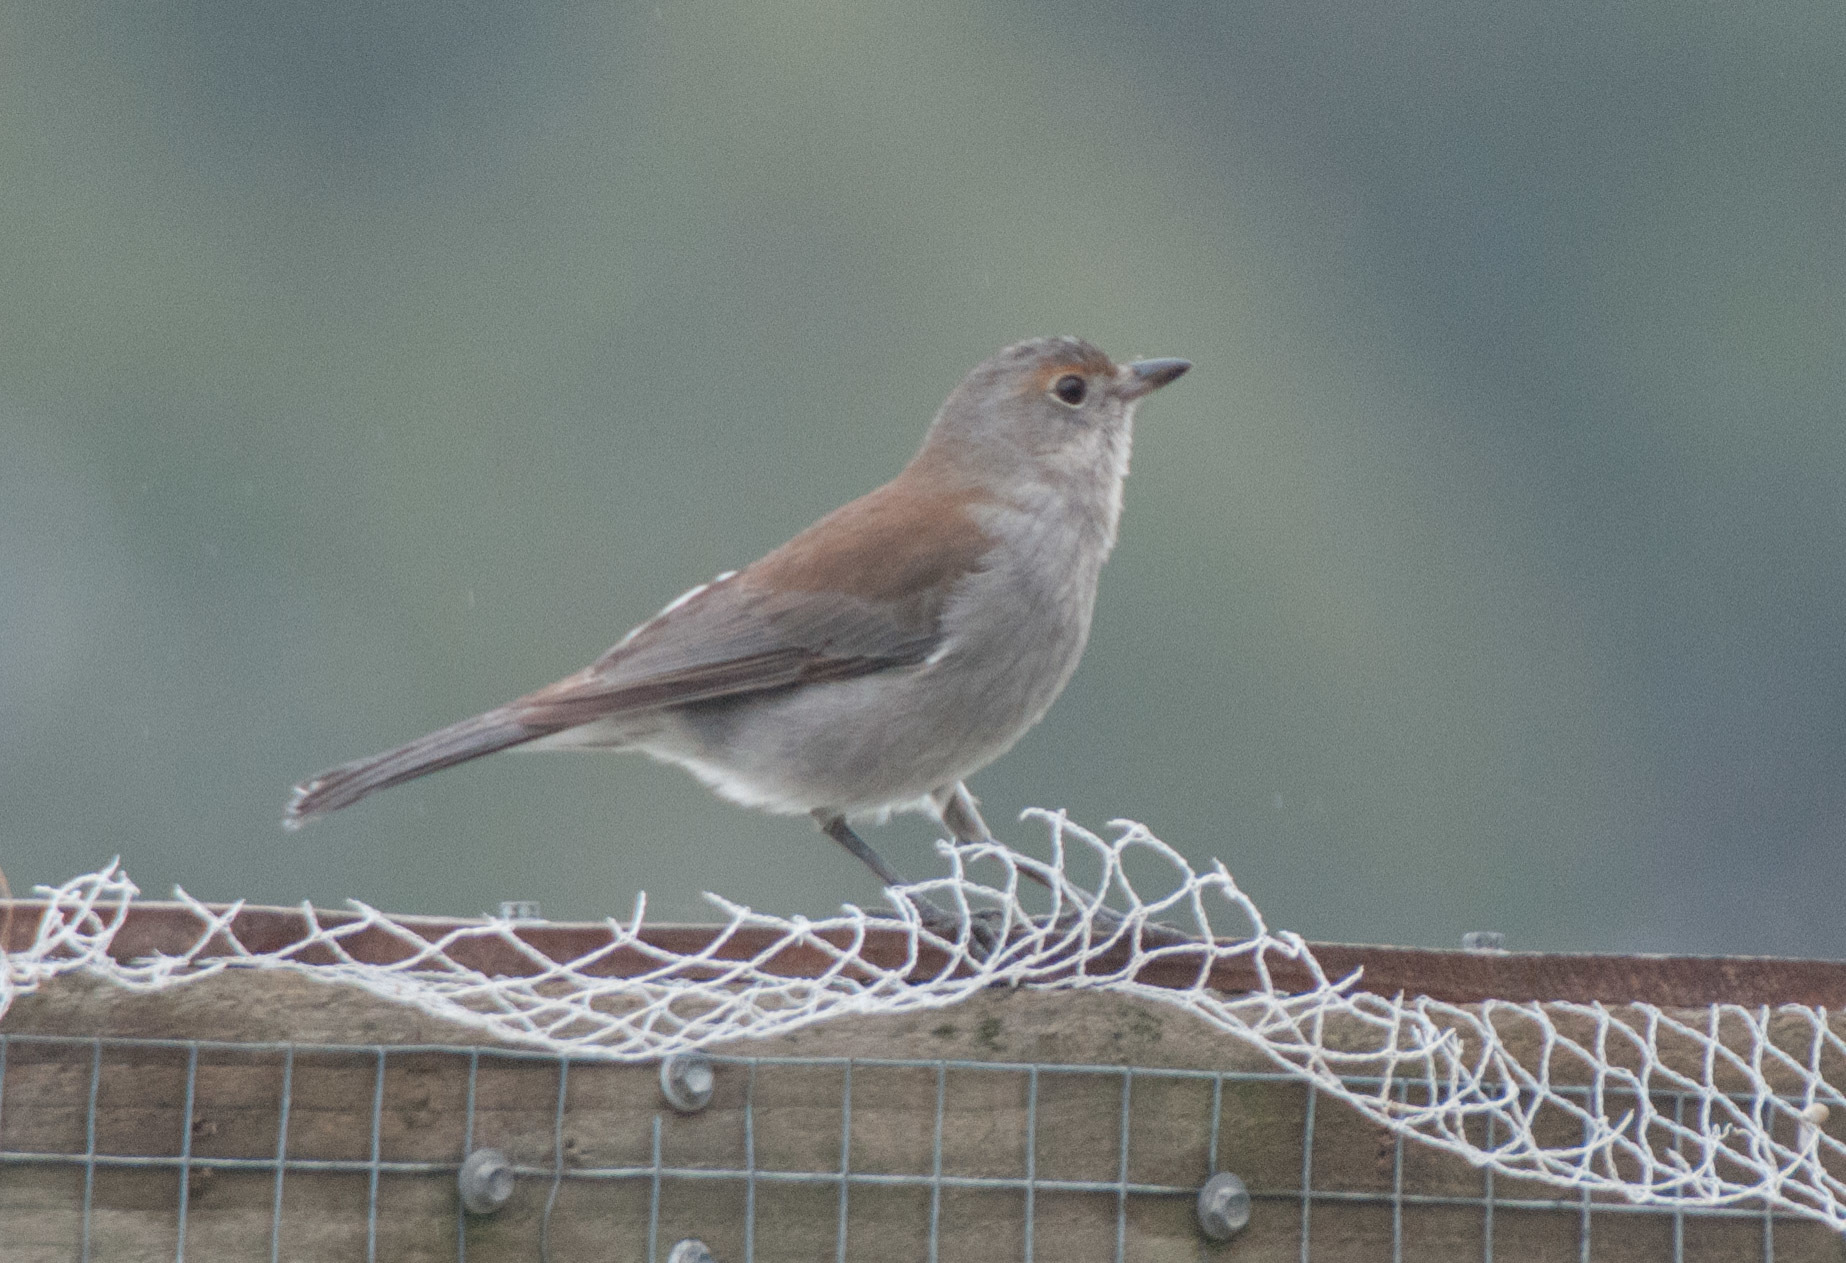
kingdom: Animalia
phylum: Chordata
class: Aves
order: Passeriformes
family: Pachycephalidae
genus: Colluricincla
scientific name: Colluricincla harmonica
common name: Grey shrikethrush
